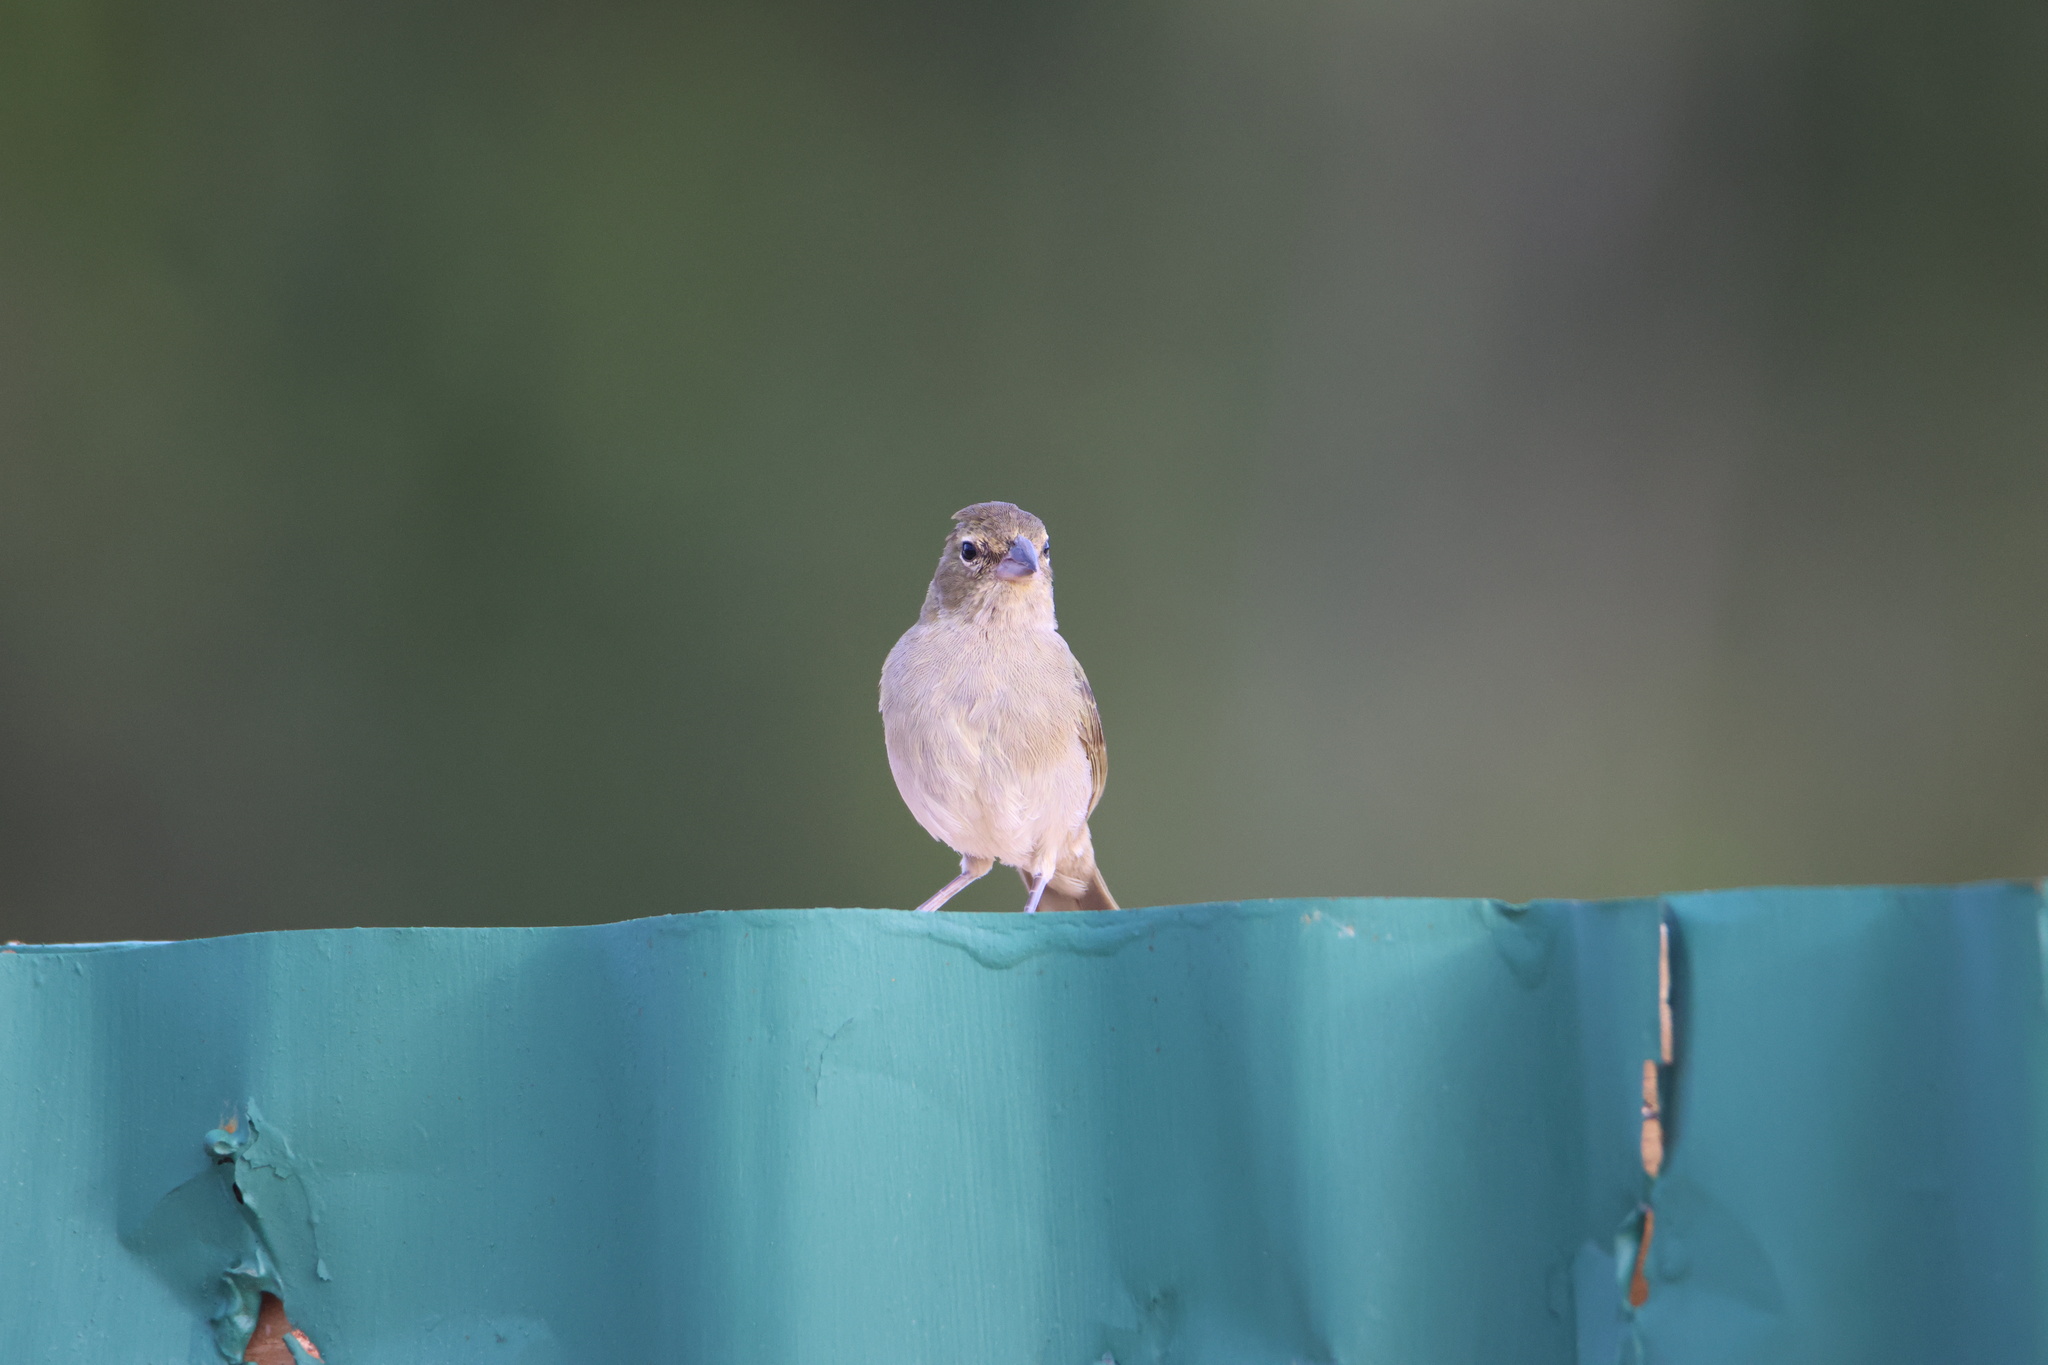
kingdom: Animalia
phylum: Chordata
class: Aves
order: Passeriformes
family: Thraupidae
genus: Tiaris
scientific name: Tiaris olivaceus
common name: Yellow-faced grassquit
